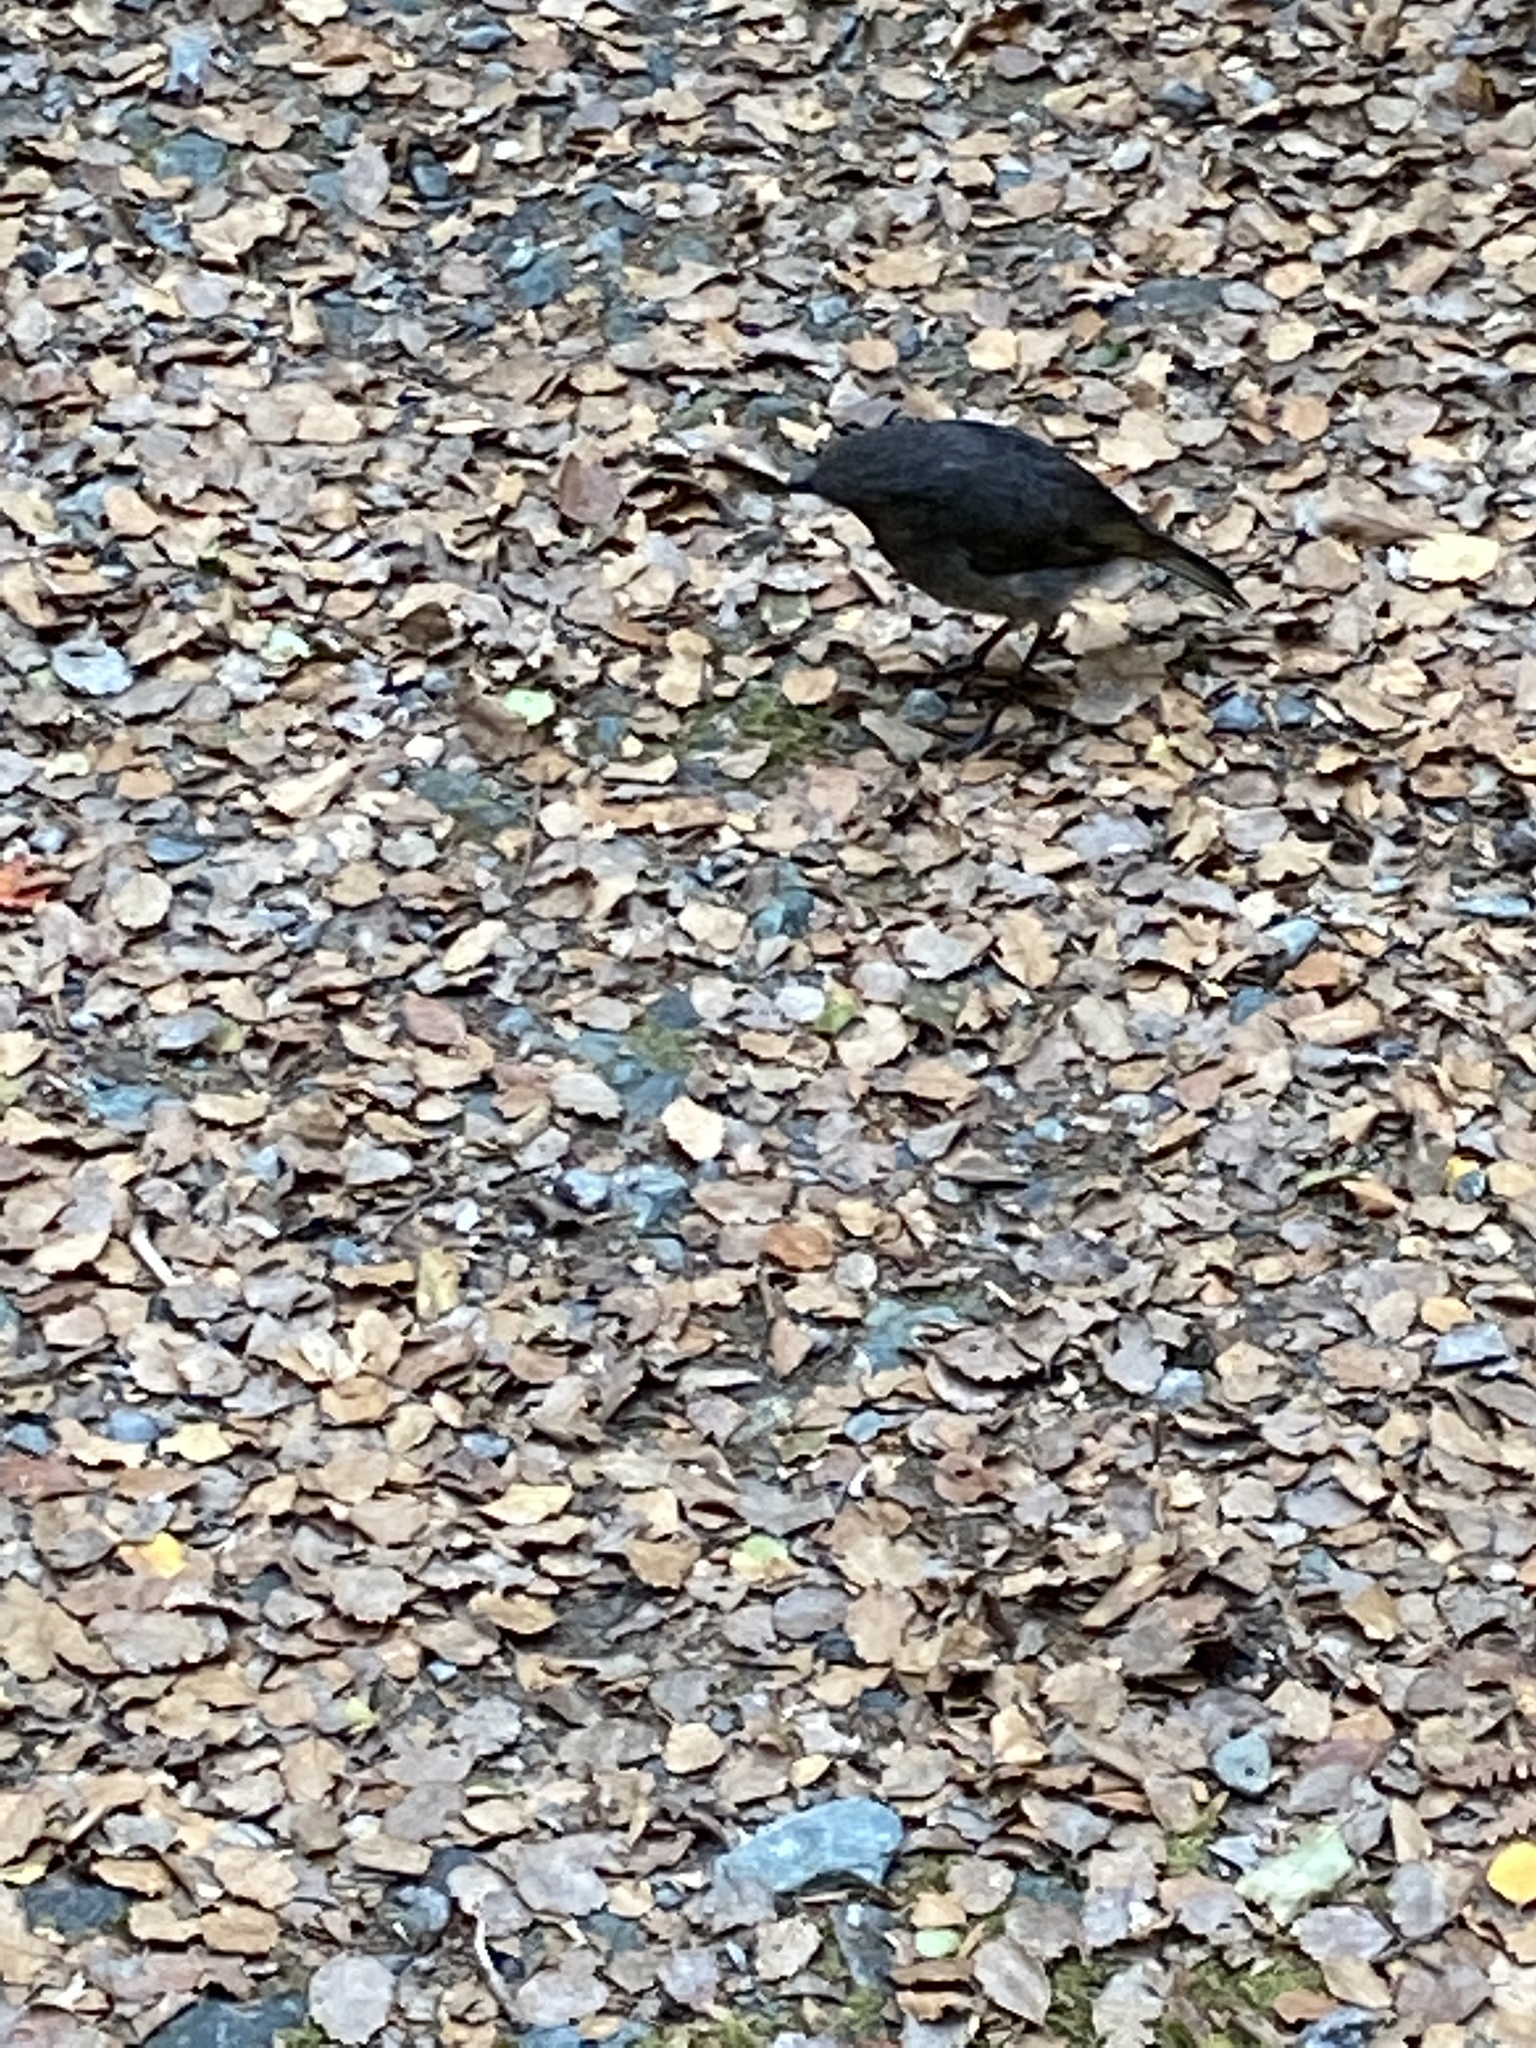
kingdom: Animalia
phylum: Chordata
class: Aves
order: Passeriformes
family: Petroicidae
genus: Petroica
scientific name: Petroica australis
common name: New zealand robin
